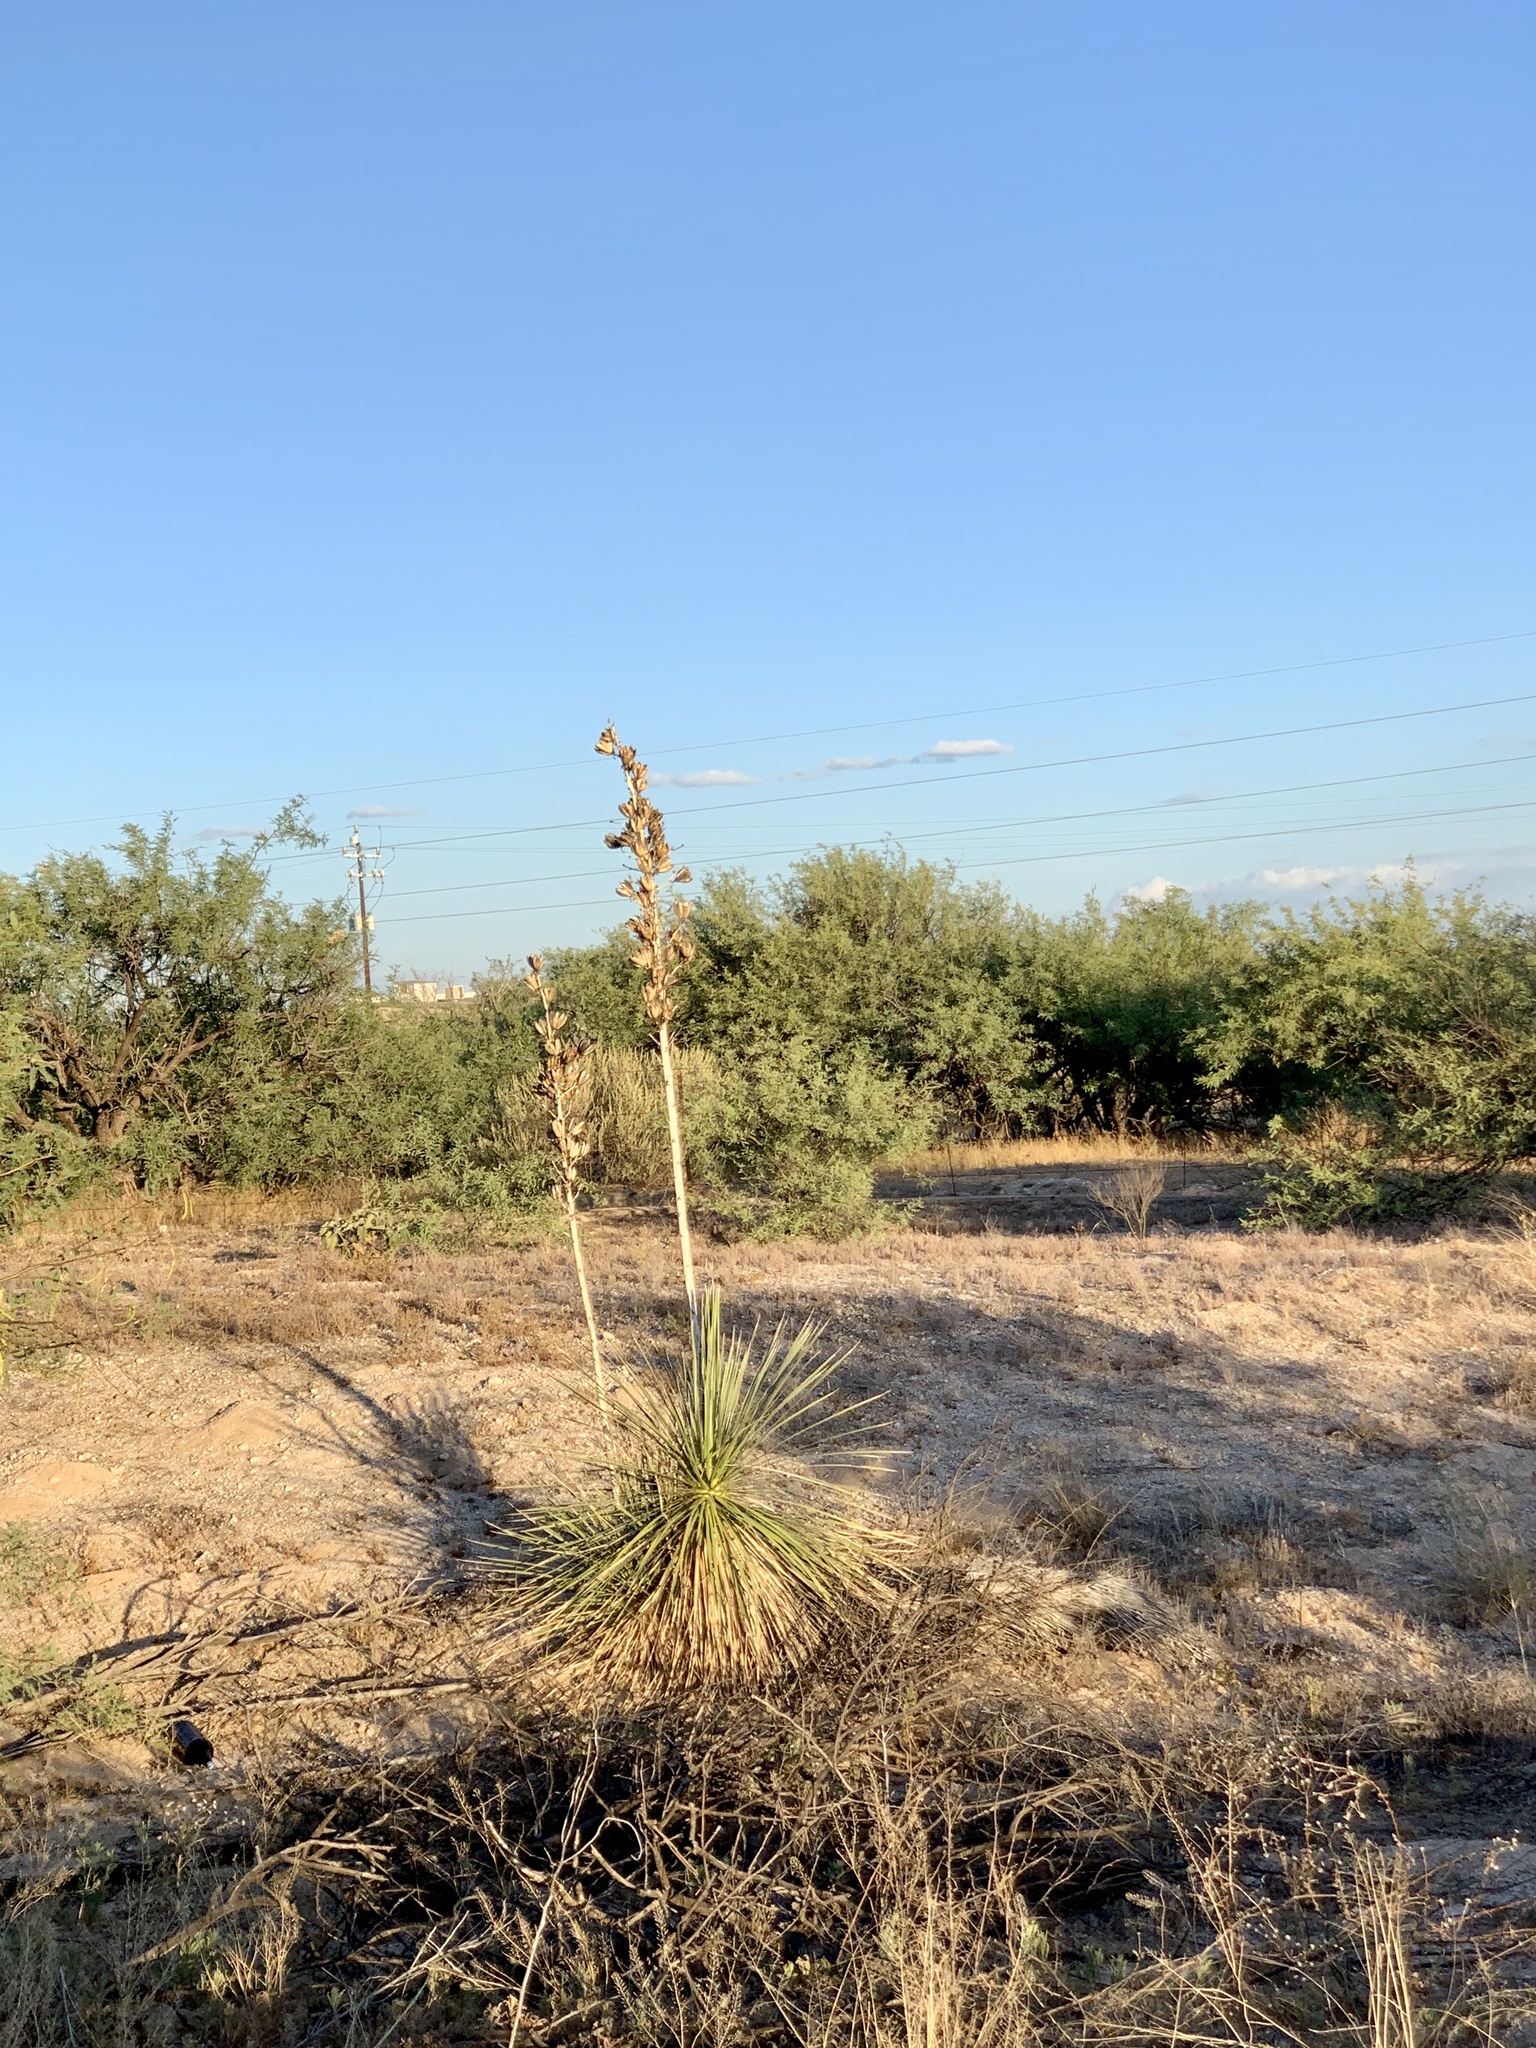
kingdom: Plantae
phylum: Tracheophyta
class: Liliopsida
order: Asparagales
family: Asparagaceae
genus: Yucca
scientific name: Yucca elata
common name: Palmella
